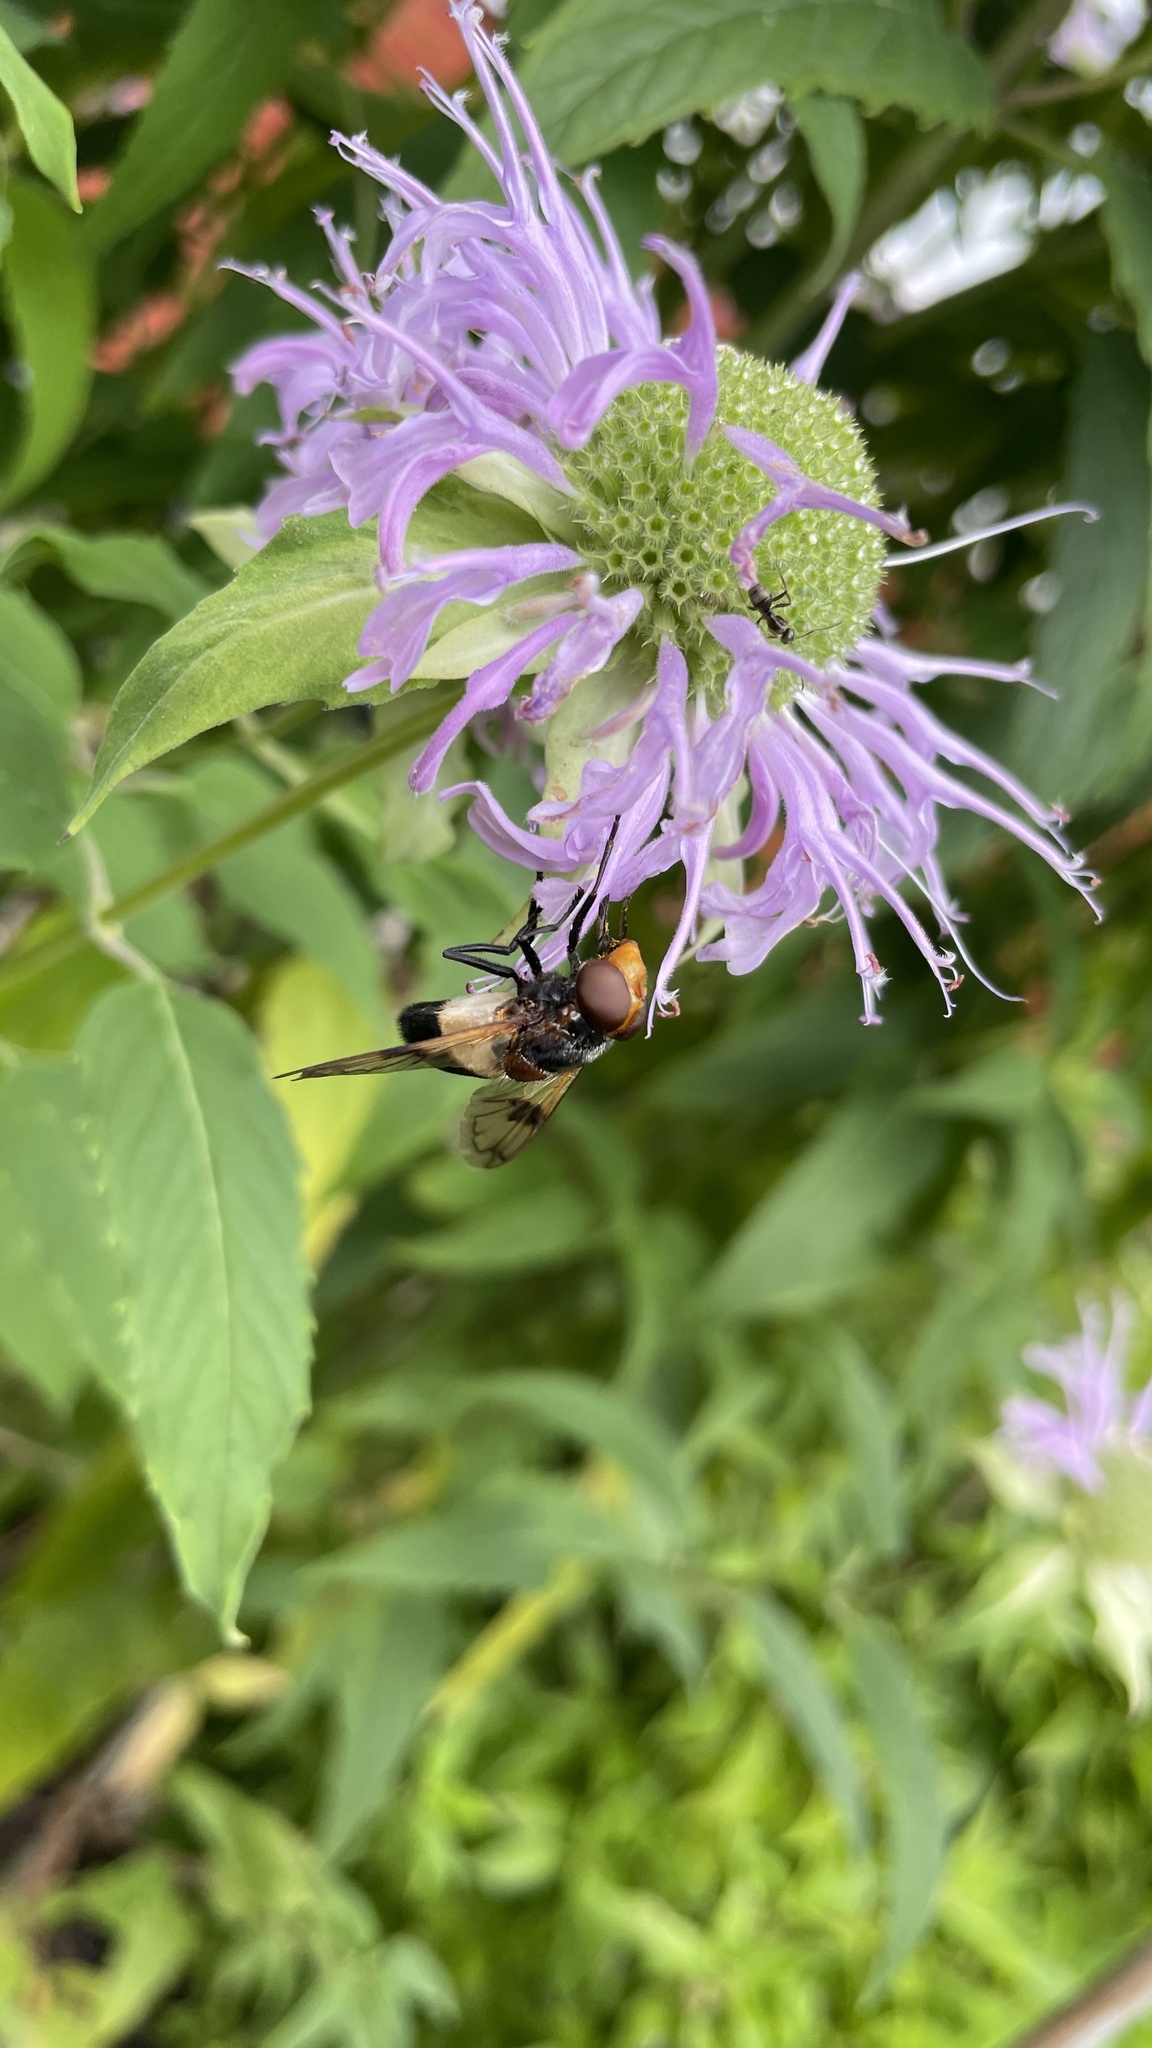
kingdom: Animalia
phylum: Arthropoda
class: Insecta
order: Diptera
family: Syrphidae
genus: Volucella
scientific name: Volucella pellucens
